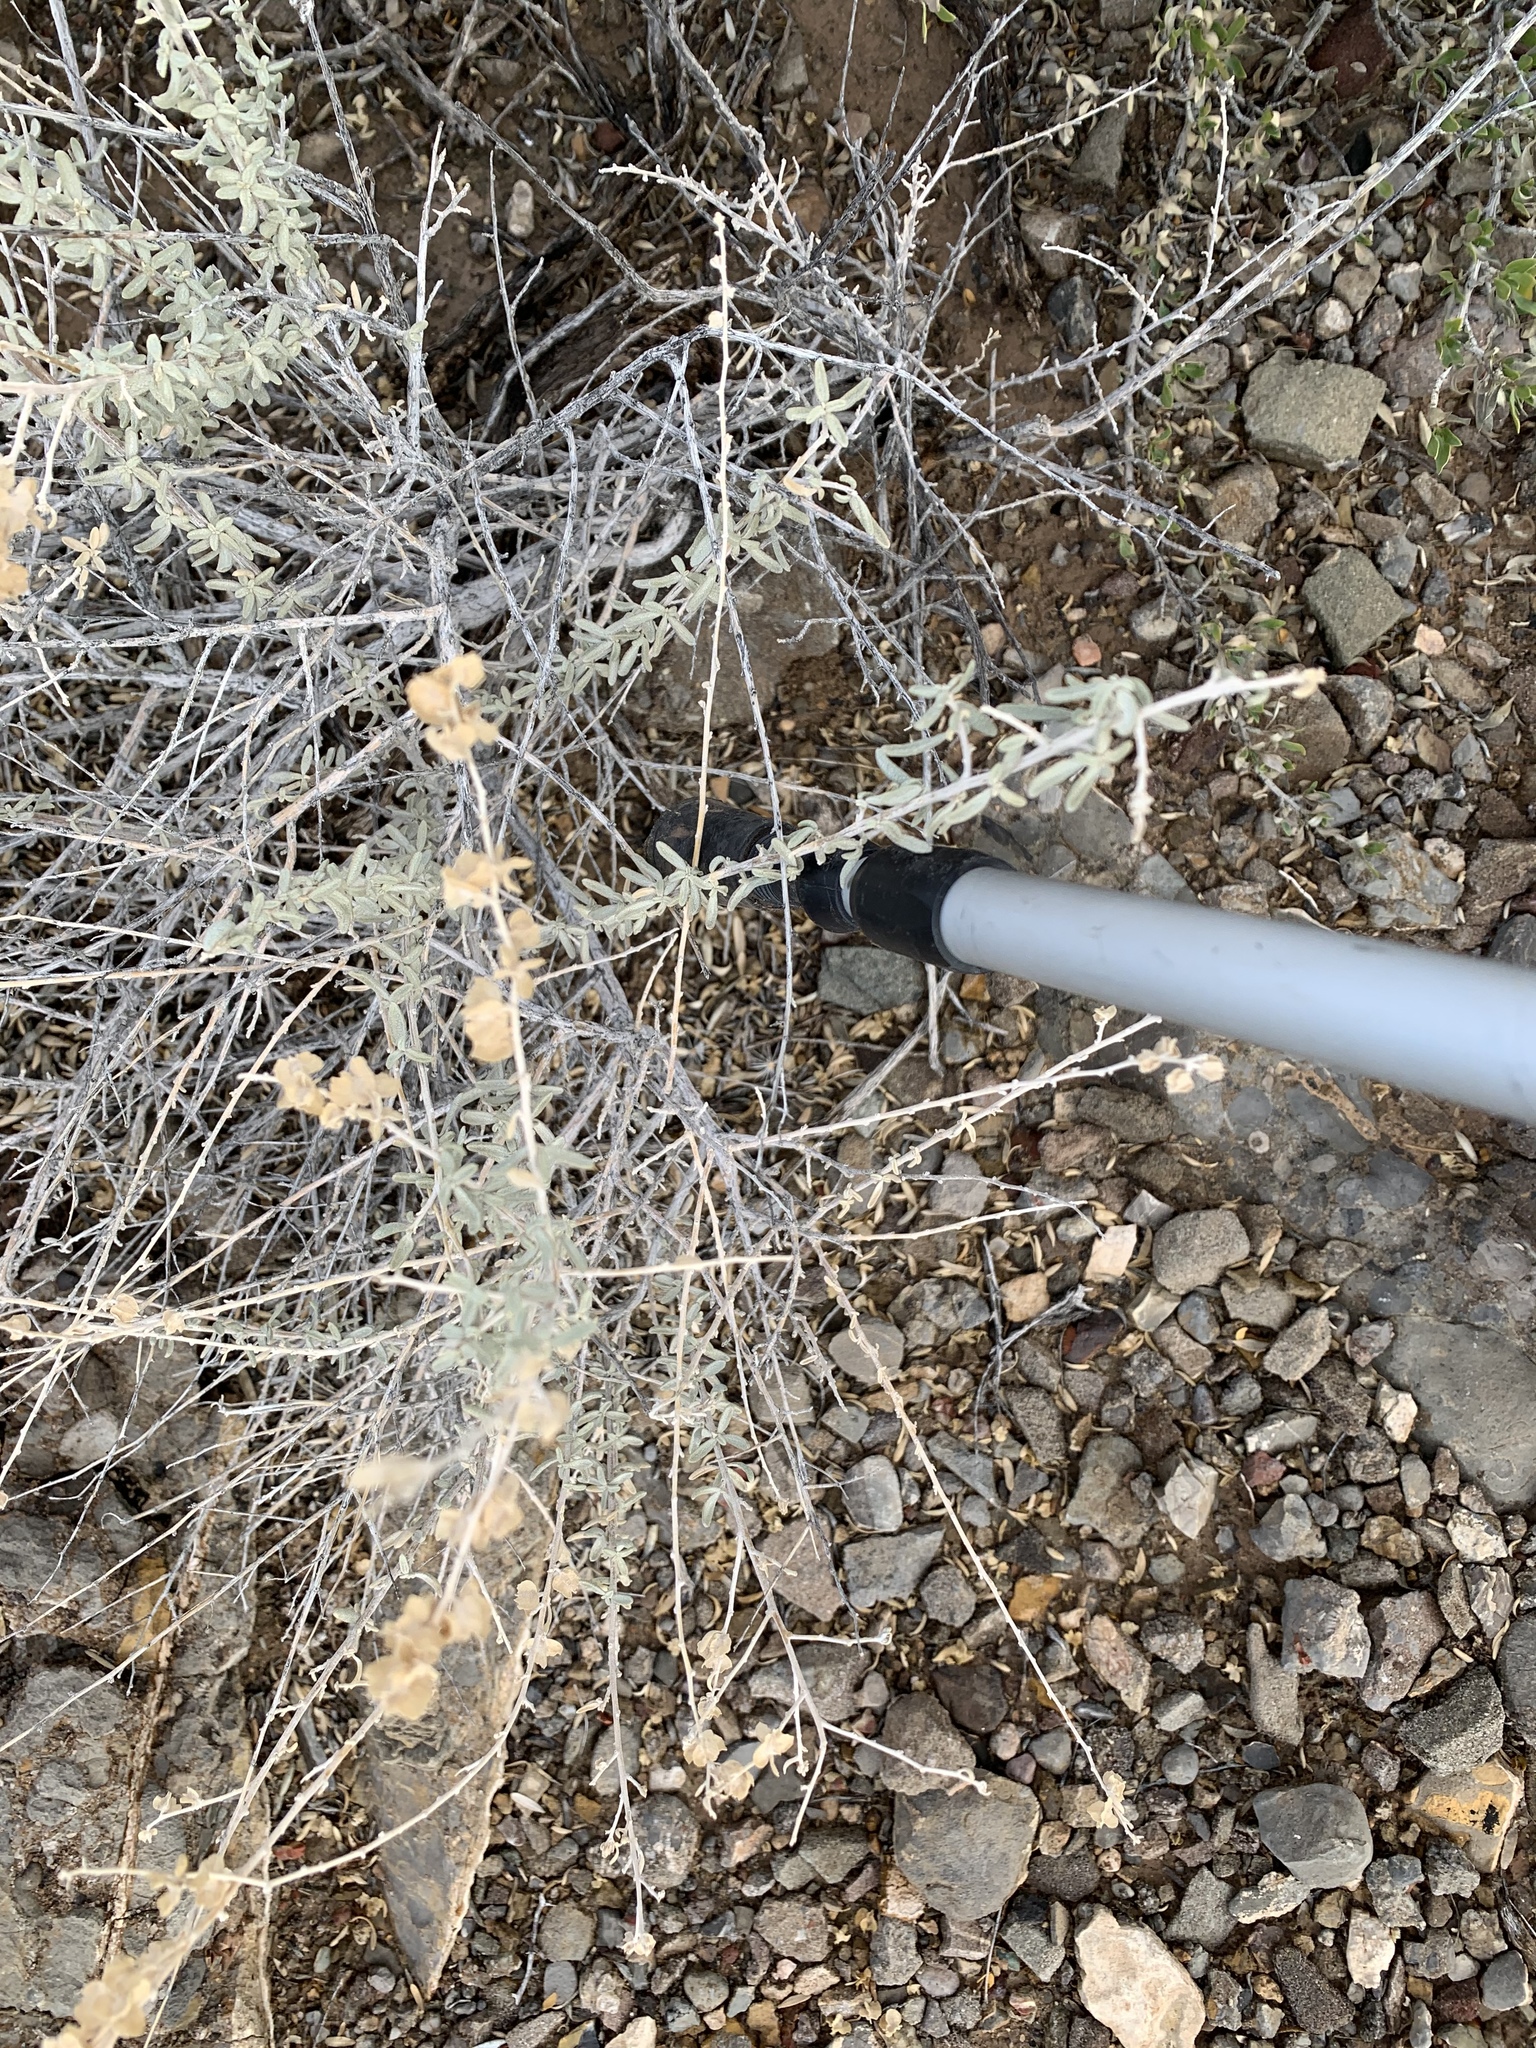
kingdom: Plantae
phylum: Tracheophyta
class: Magnoliopsida
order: Caryophyllales
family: Amaranthaceae
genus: Atriplex
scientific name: Atriplex canescens
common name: Four-wing saltbush
